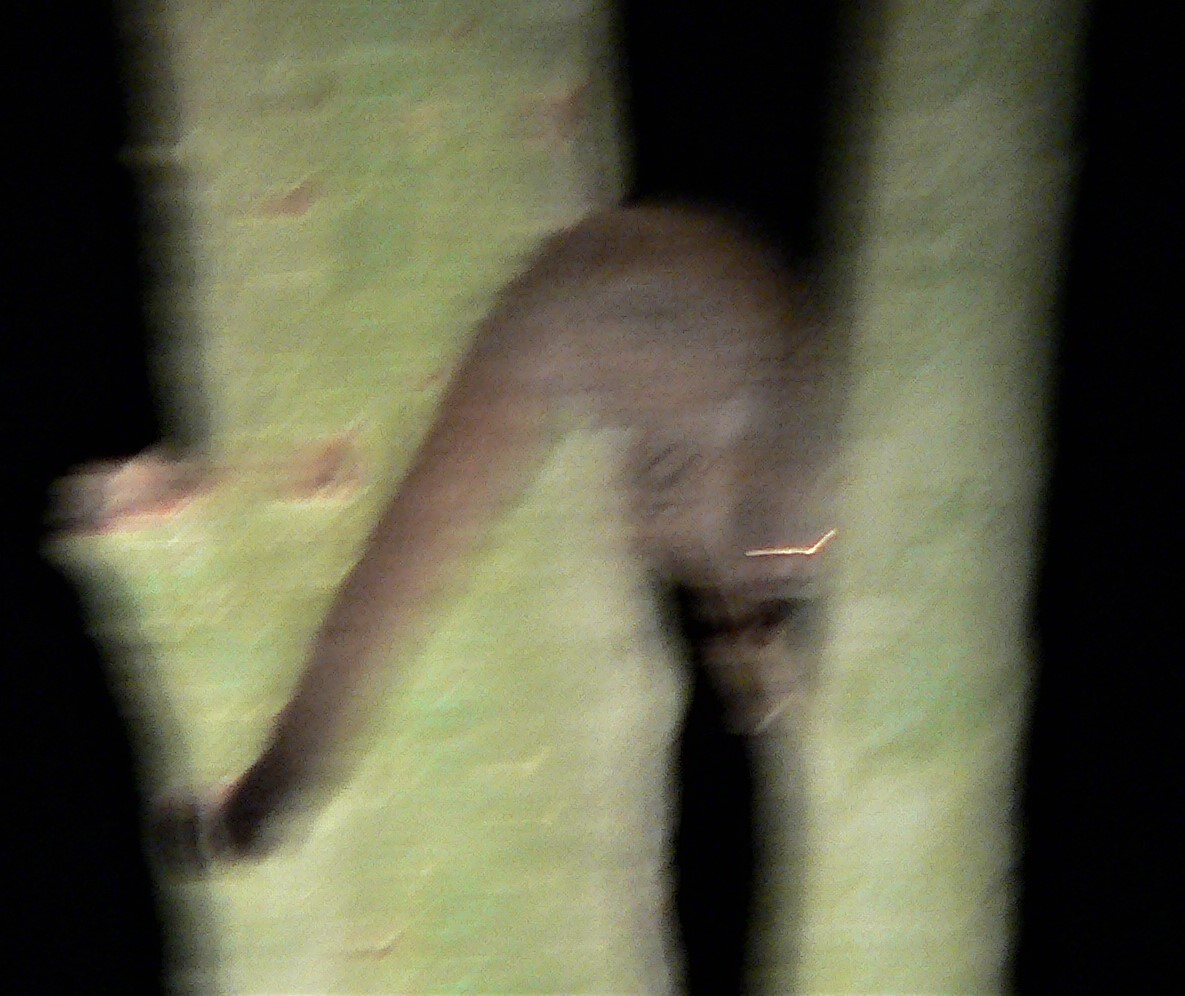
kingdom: Animalia
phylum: Chordata
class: Mammalia
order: Primates
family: Galagidae
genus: Otolemur
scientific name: Otolemur crassicaudatus
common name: Brown greater galago
